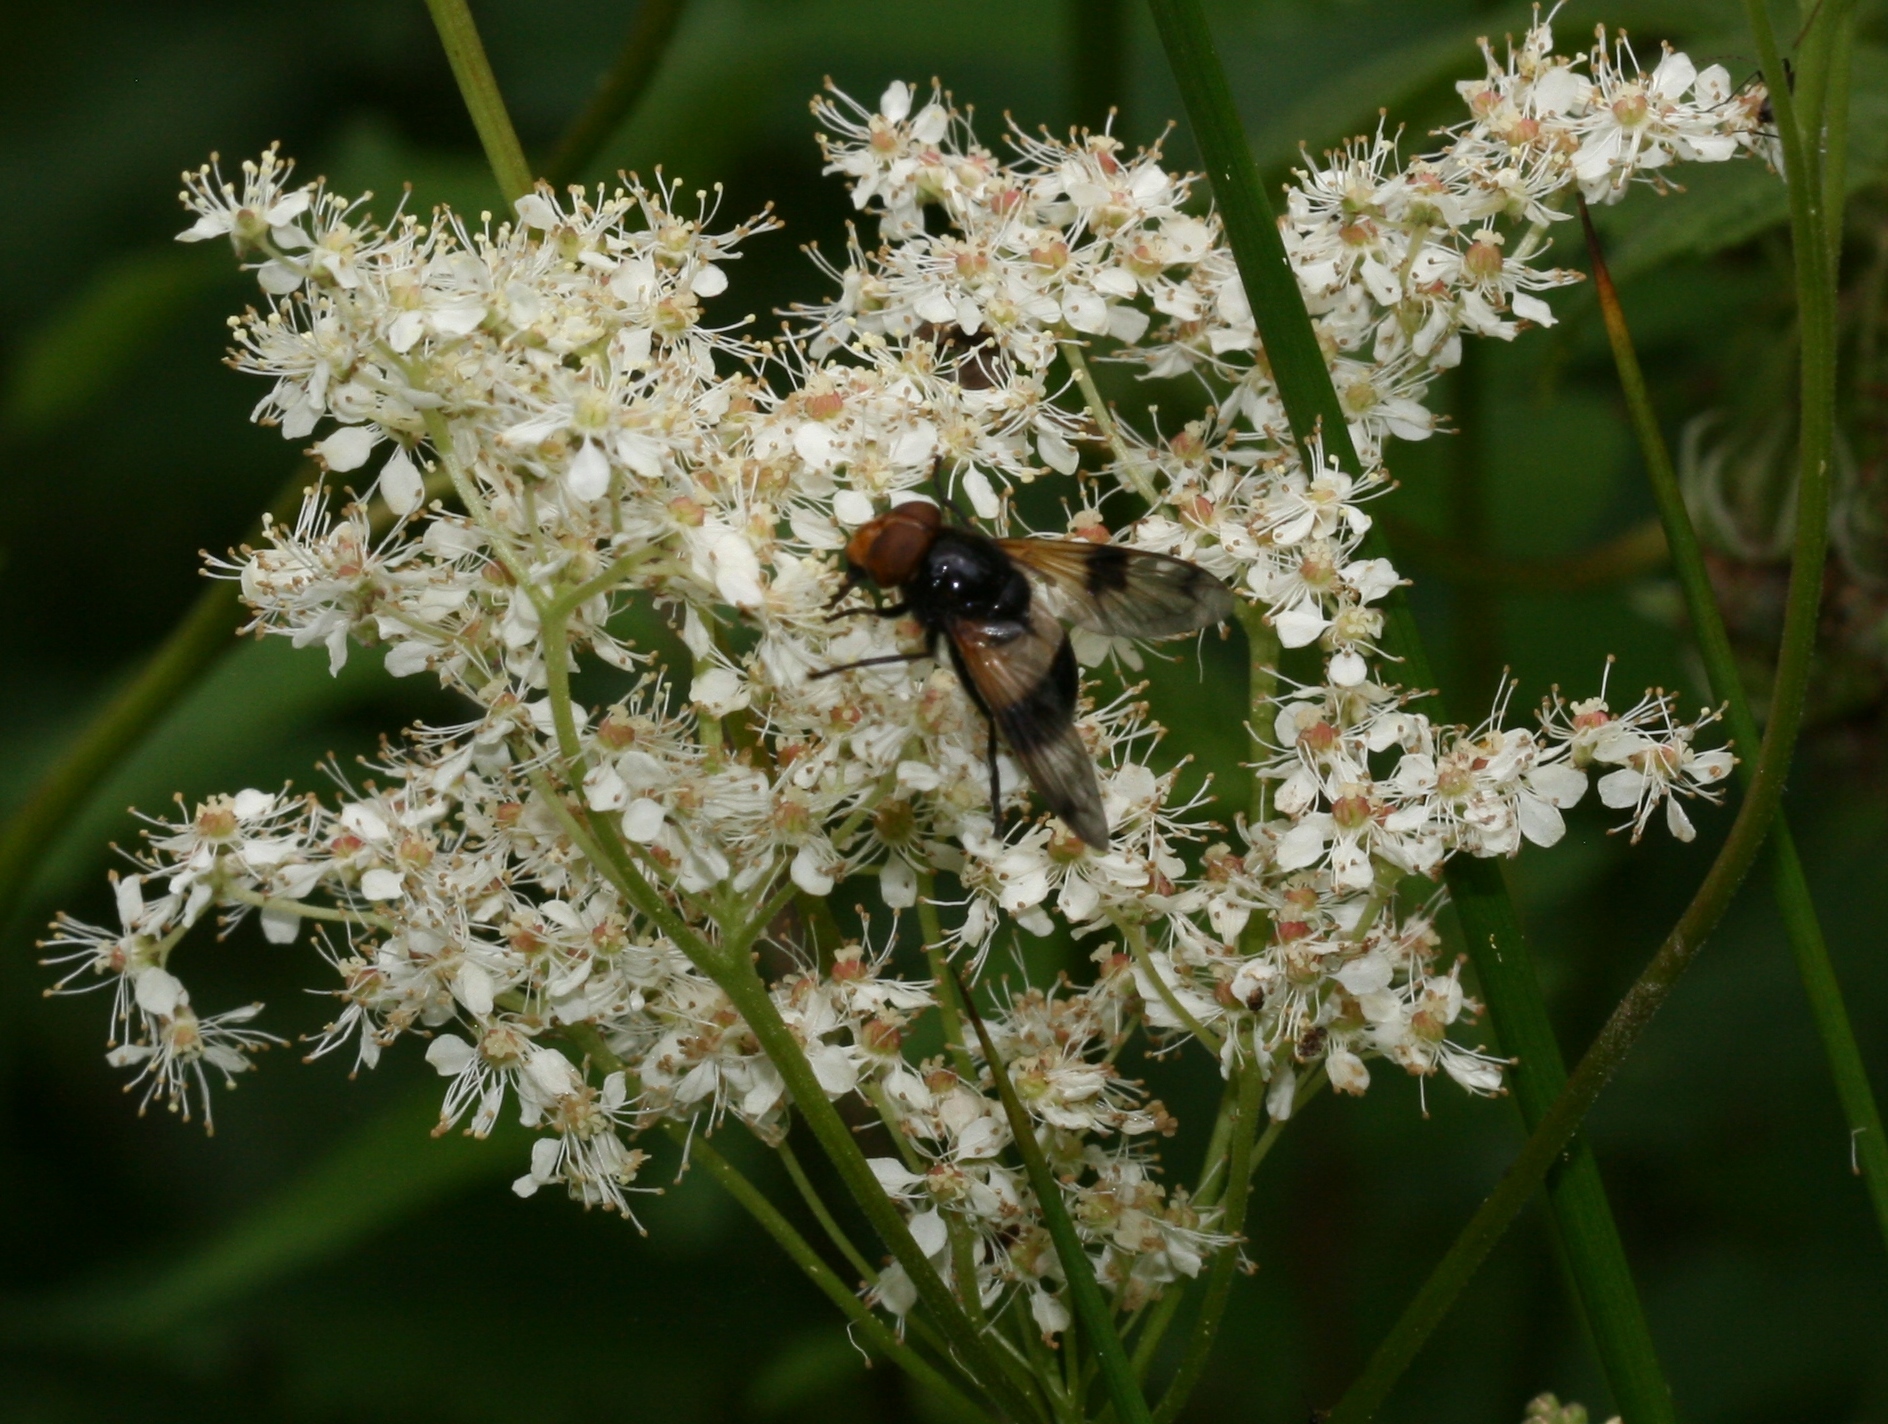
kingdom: Animalia
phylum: Arthropoda
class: Insecta
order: Diptera
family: Syrphidae
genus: Volucella
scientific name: Volucella pellucens
